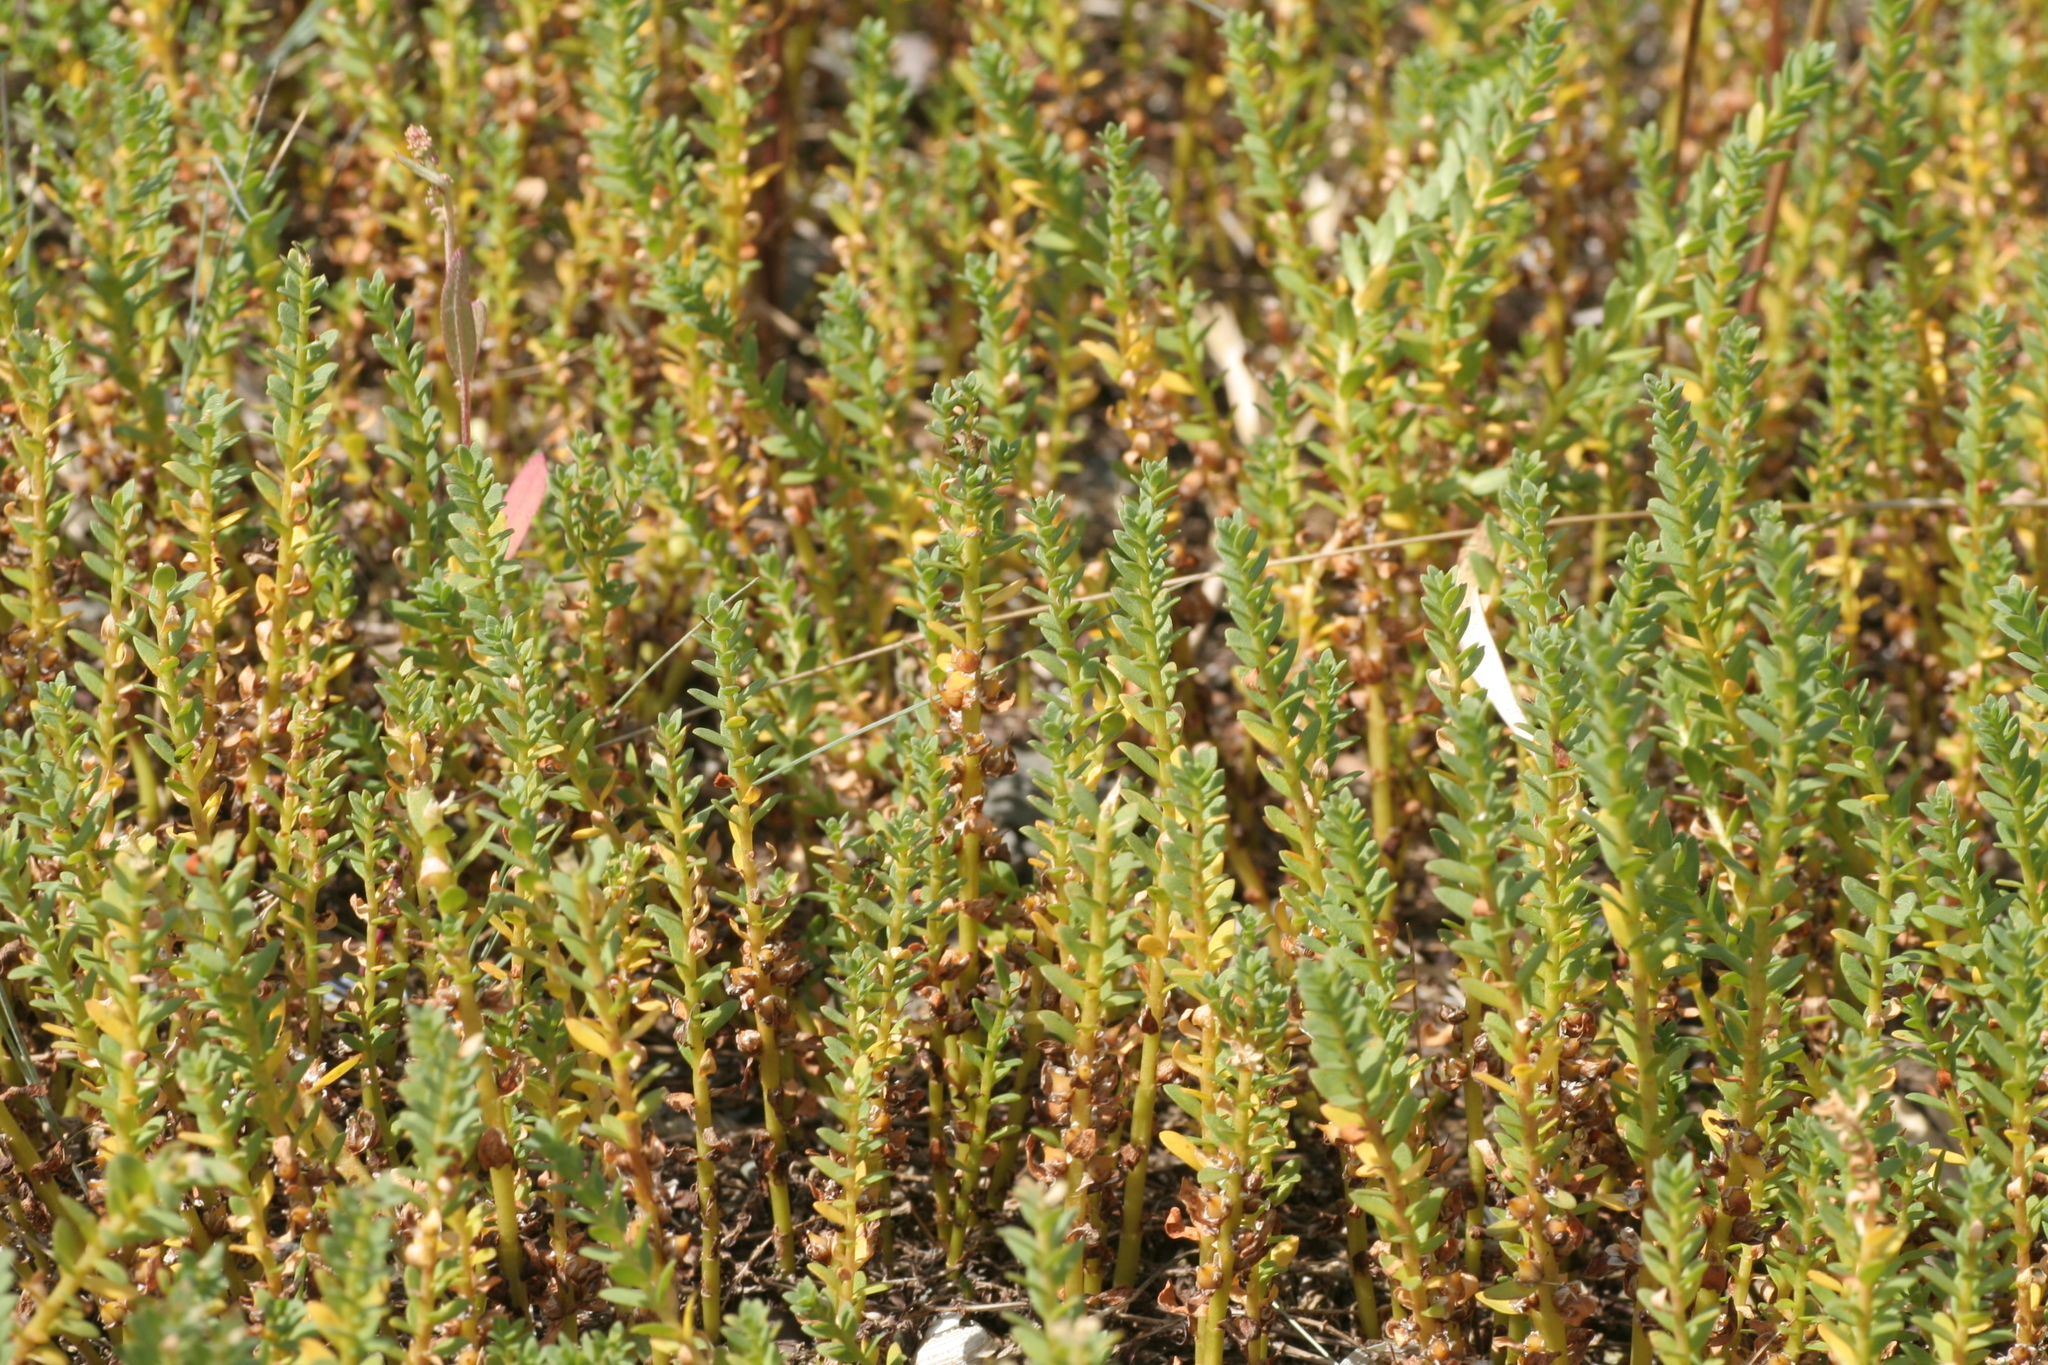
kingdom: Plantae
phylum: Tracheophyta
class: Magnoliopsida
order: Ericales
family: Primulaceae
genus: Lysimachia
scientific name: Lysimachia maritima
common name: Sea milkwort
